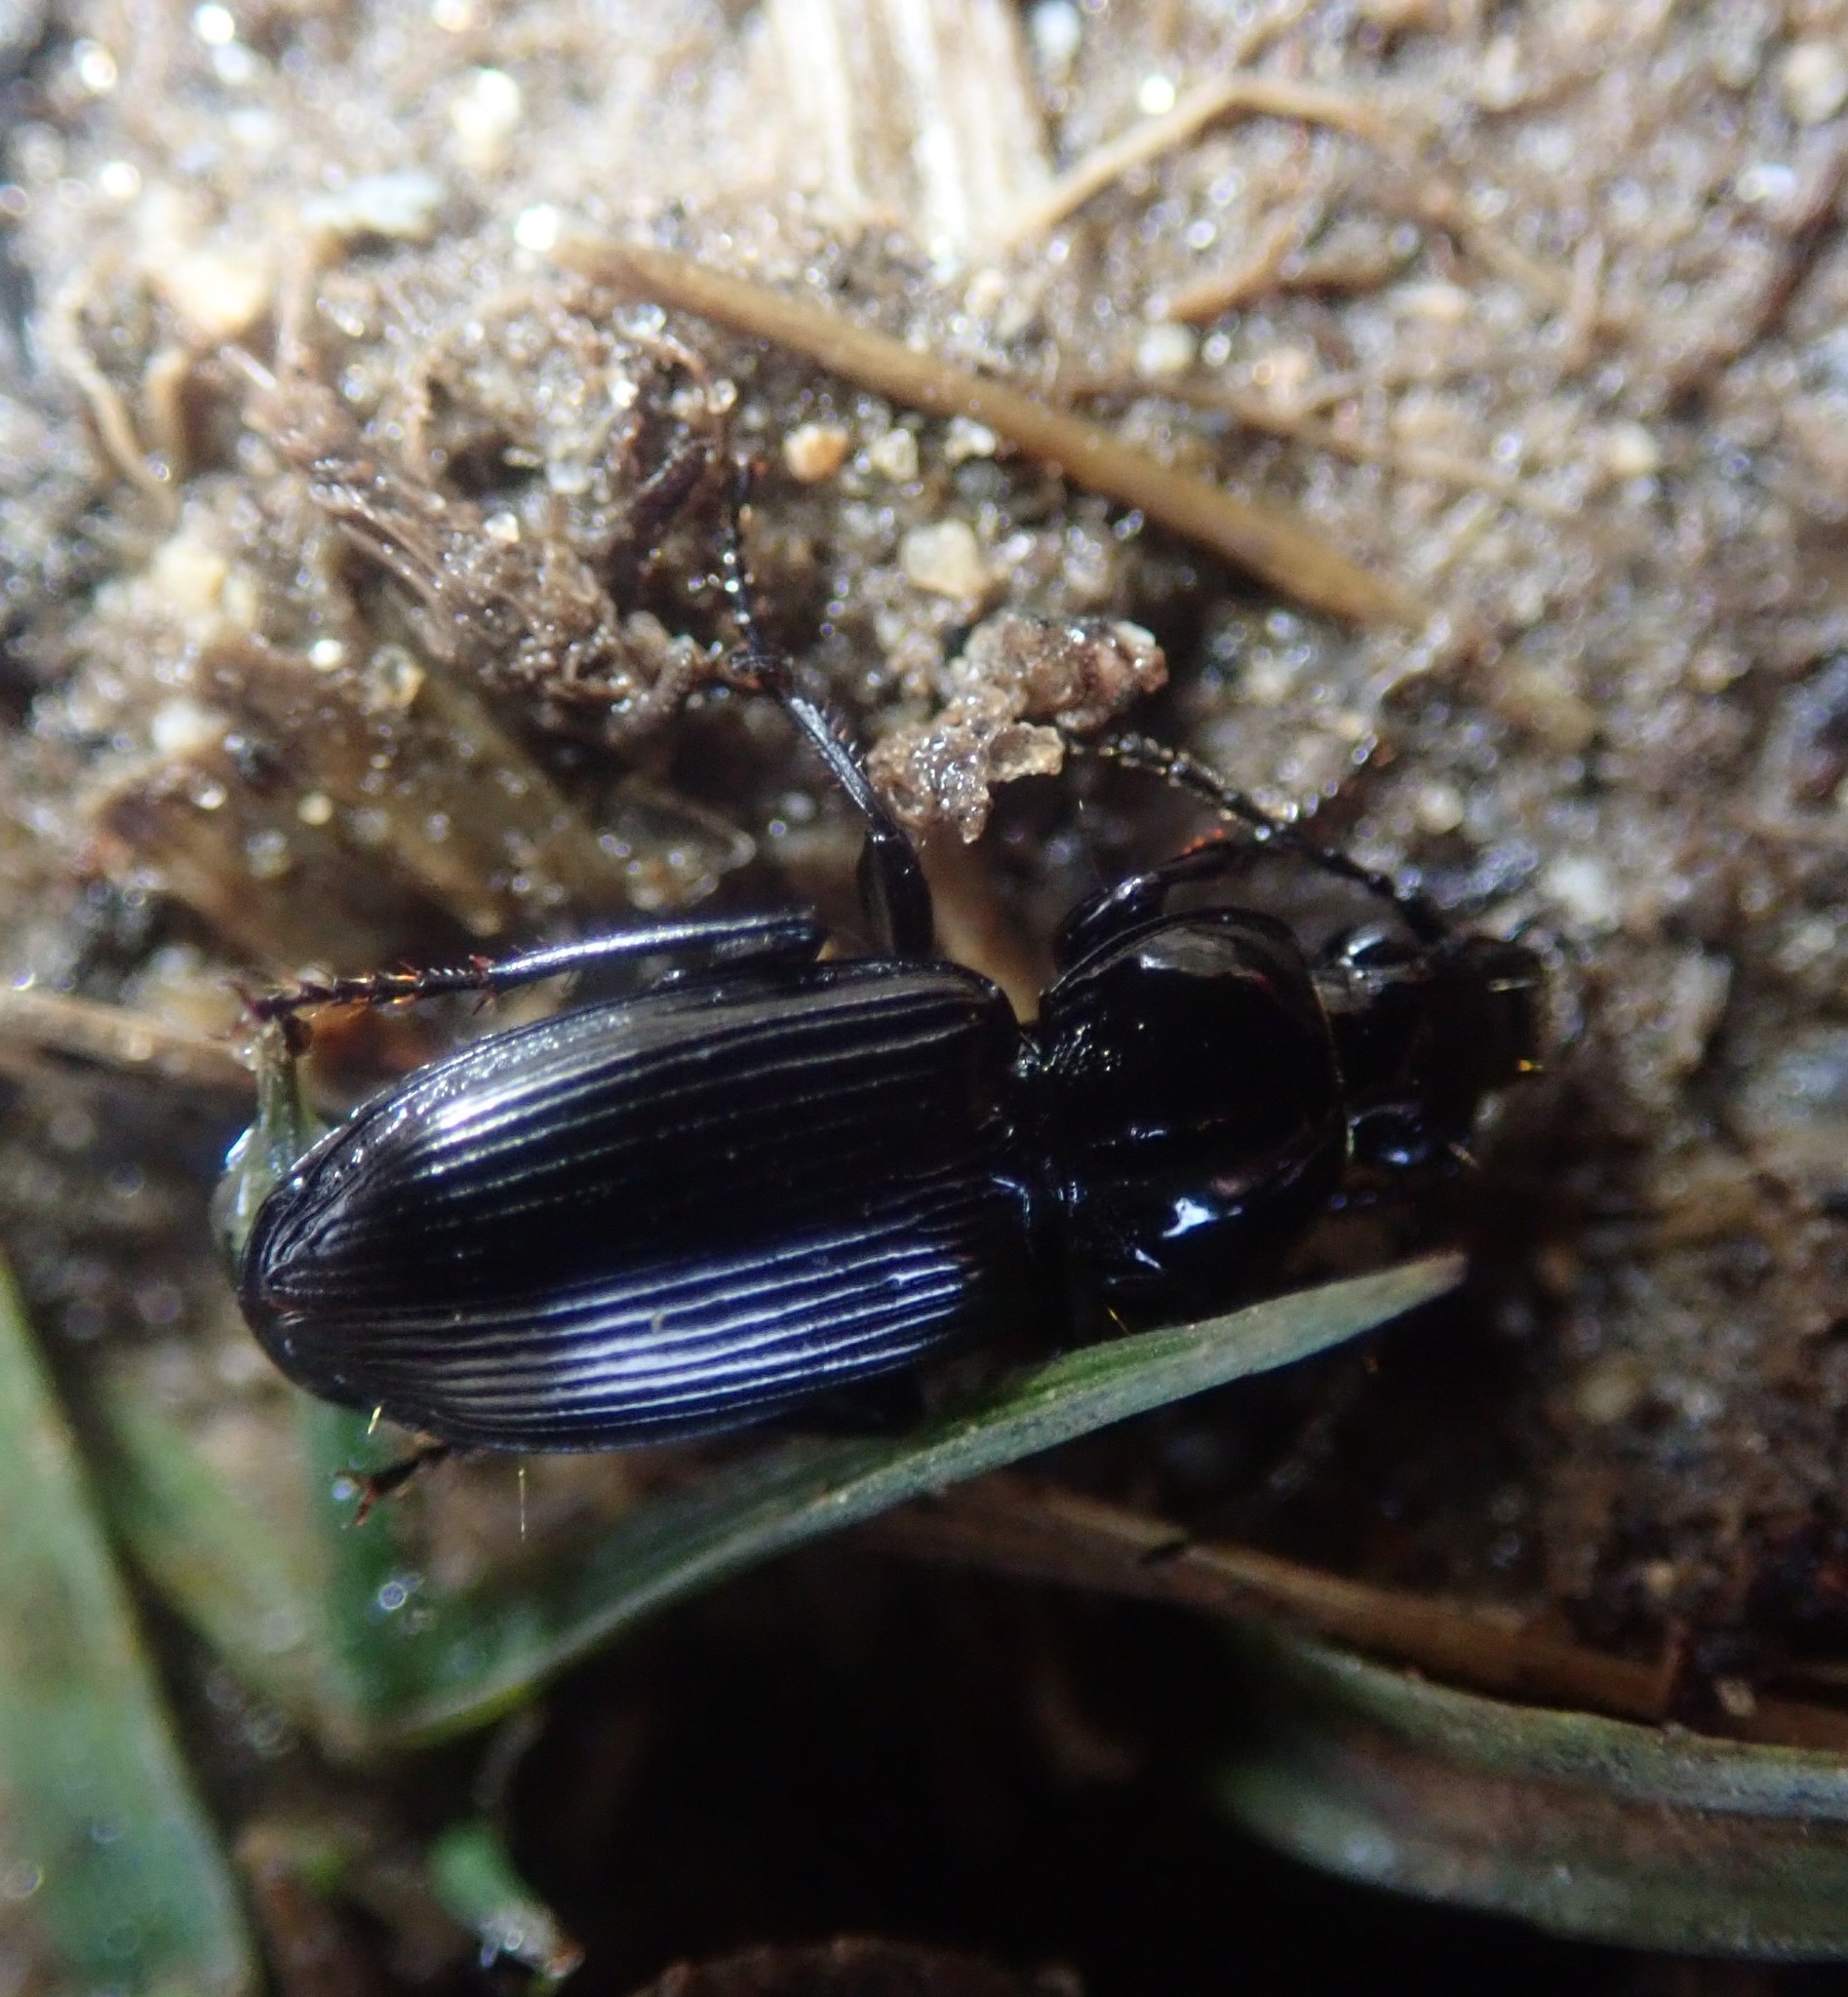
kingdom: Animalia
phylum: Arthropoda
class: Insecta
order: Coleoptera
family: Carabidae
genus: Pterostichus
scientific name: Pterostichus madidus
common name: Black clock
